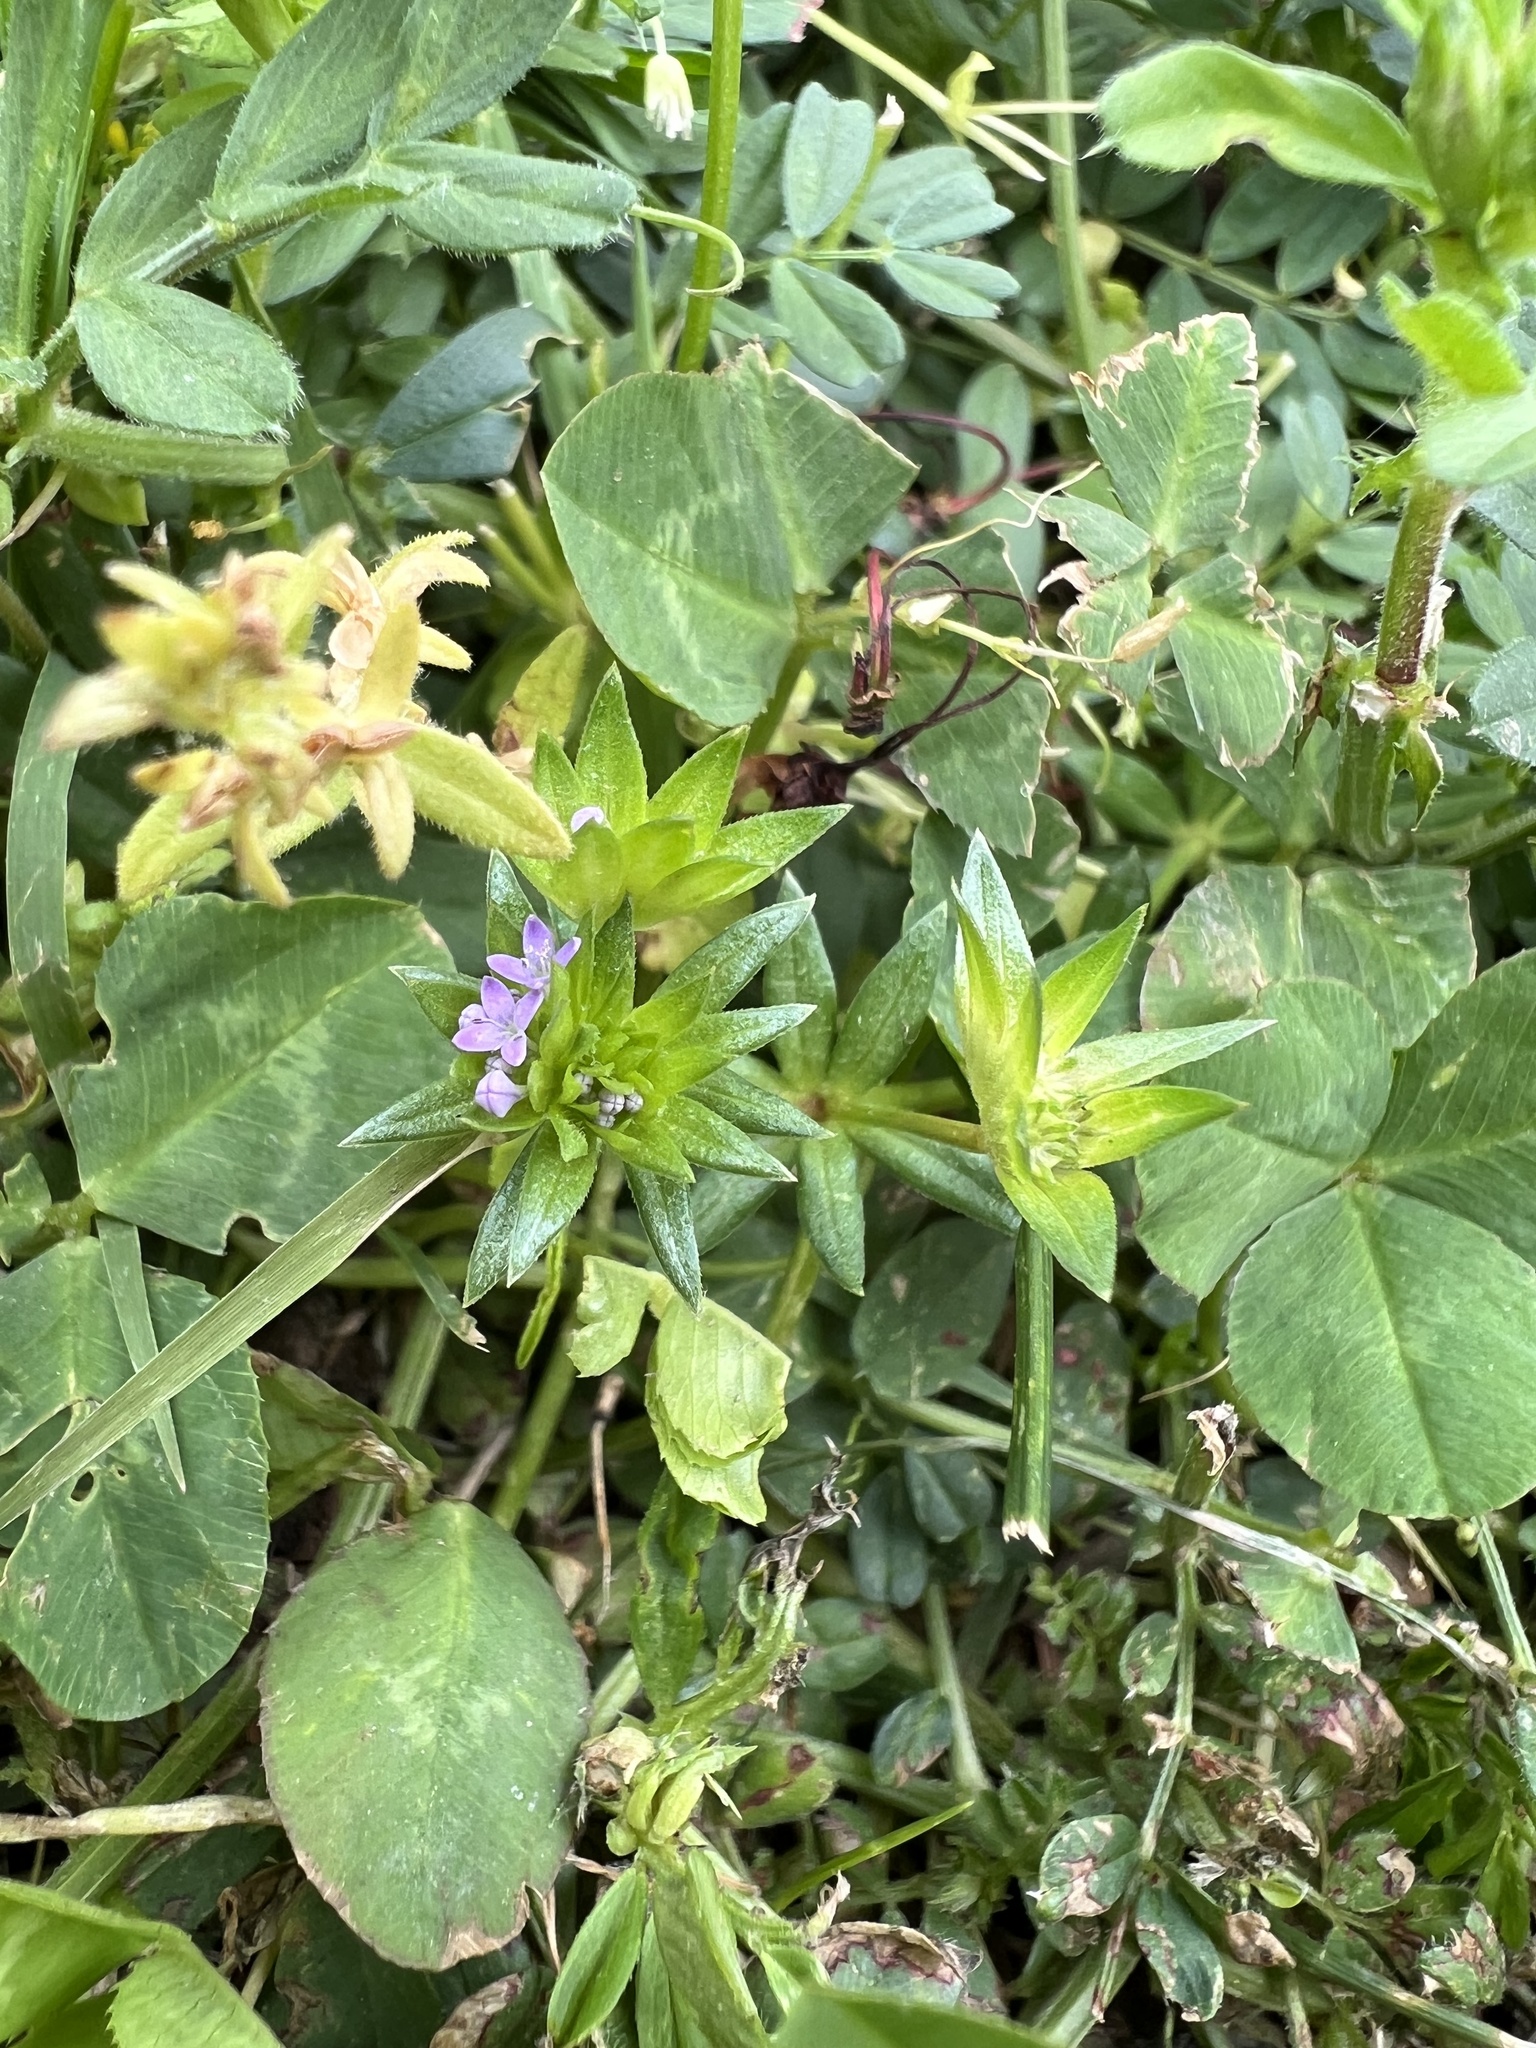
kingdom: Plantae
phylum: Tracheophyta
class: Magnoliopsida
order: Gentianales
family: Rubiaceae
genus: Sherardia
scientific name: Sherardia arvensis
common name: Field madder
